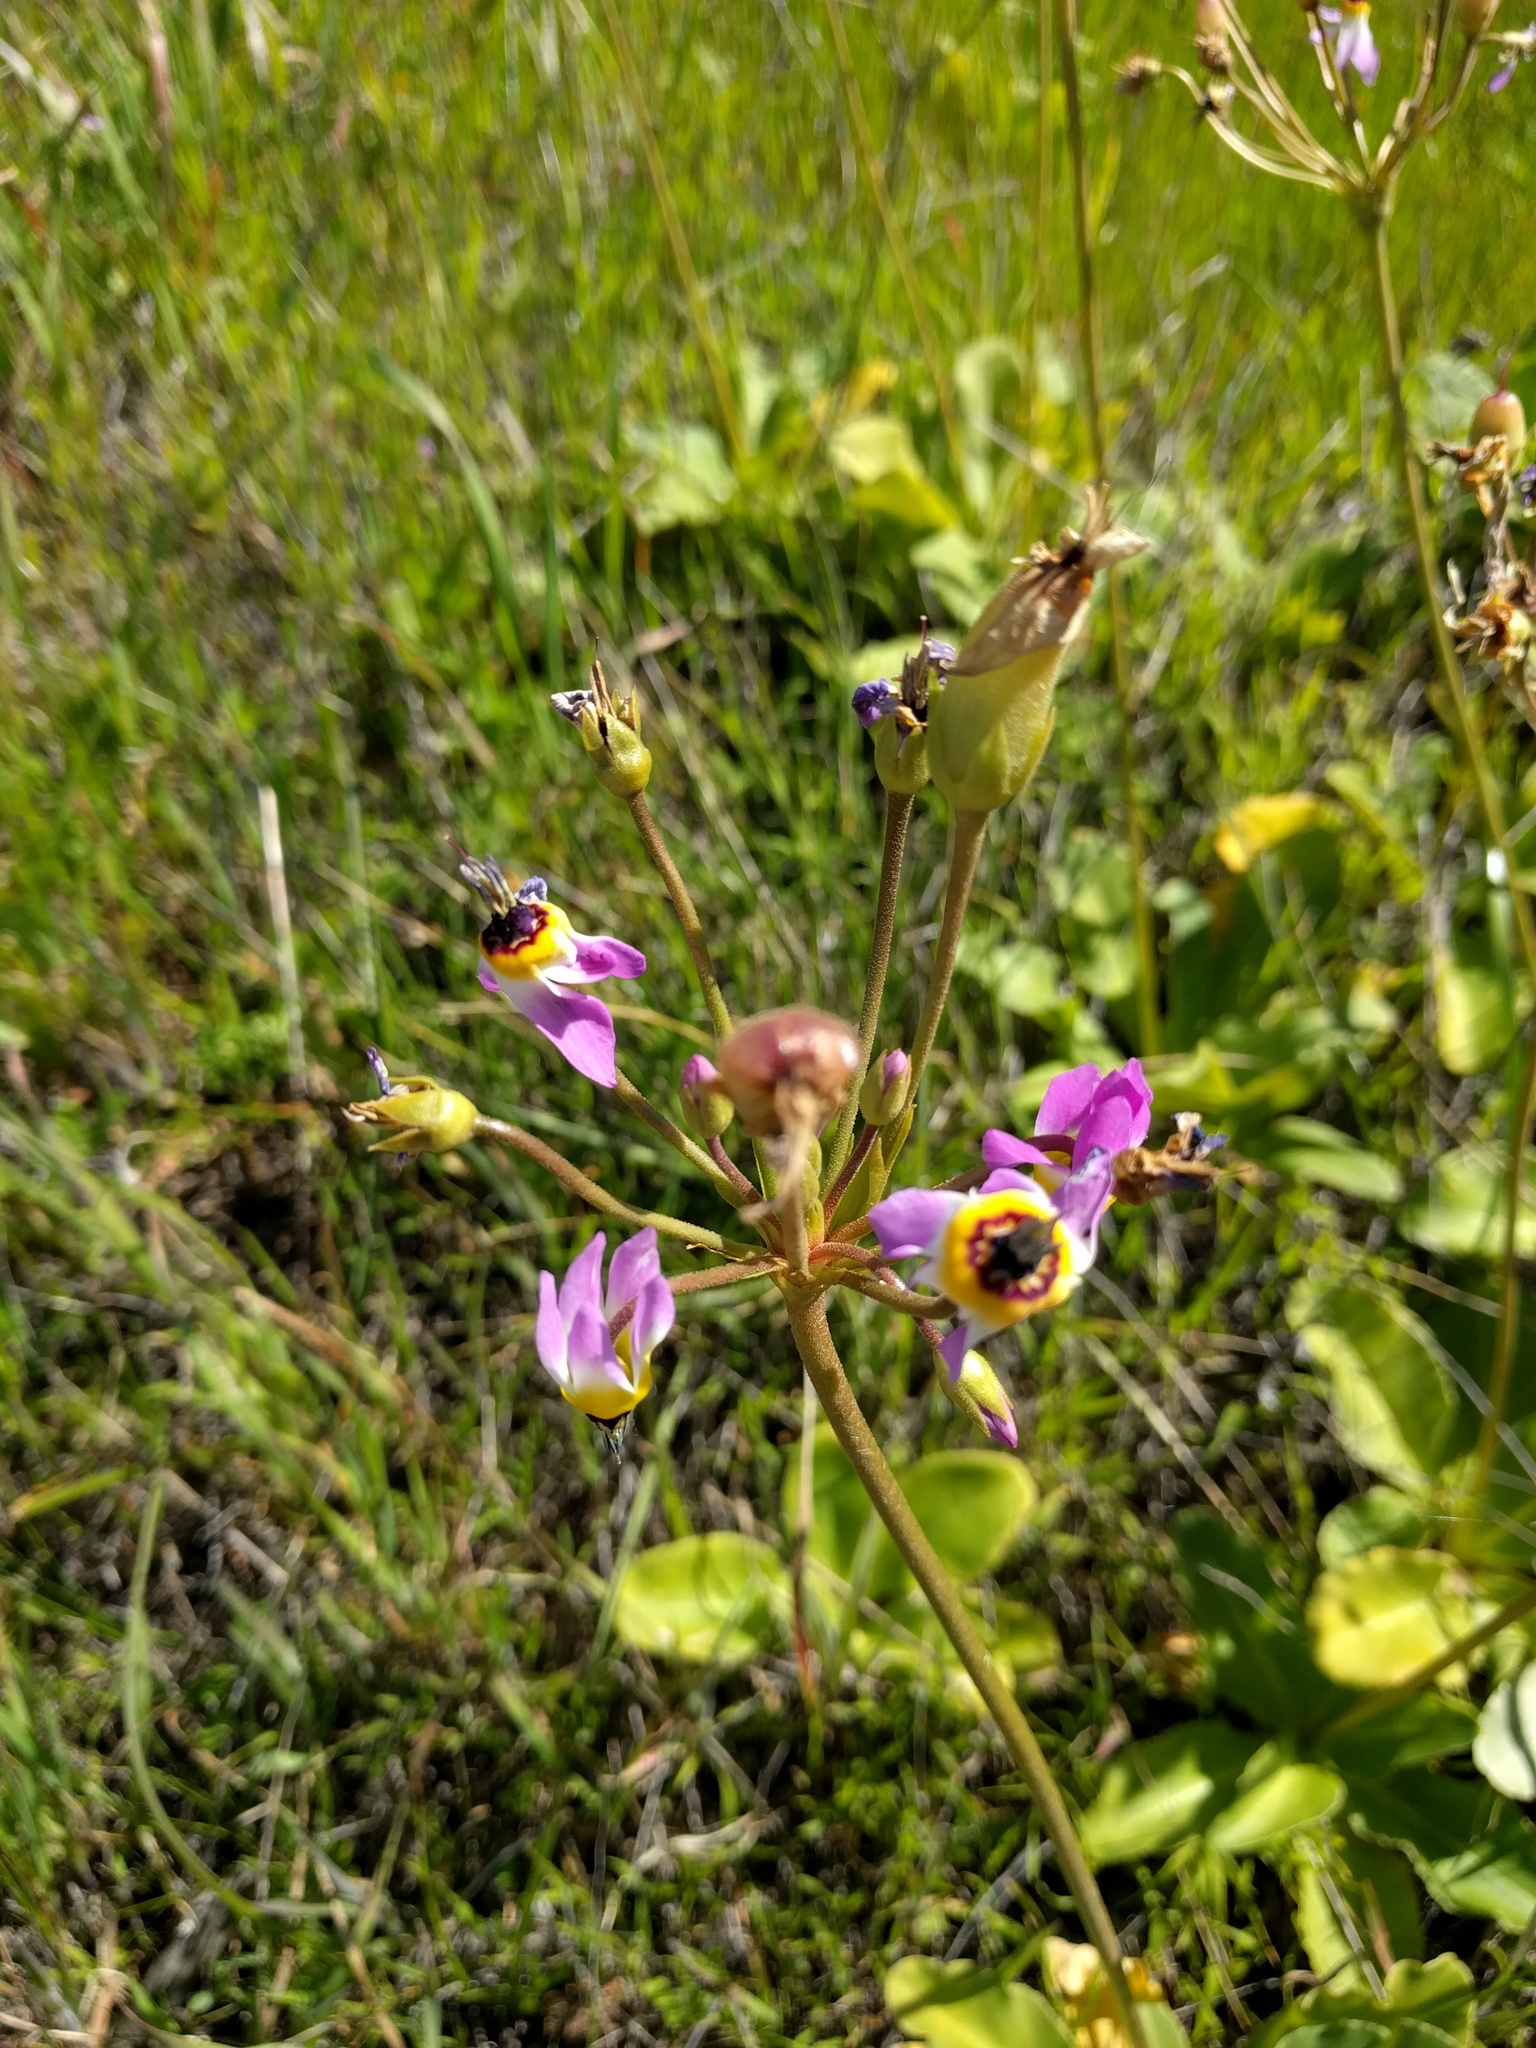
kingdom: Plantae
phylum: Tracheophyta
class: Magnoliopsida
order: Ericales
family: Primulaceae
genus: Dodecatheon
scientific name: Dodecatheon clevelandii
